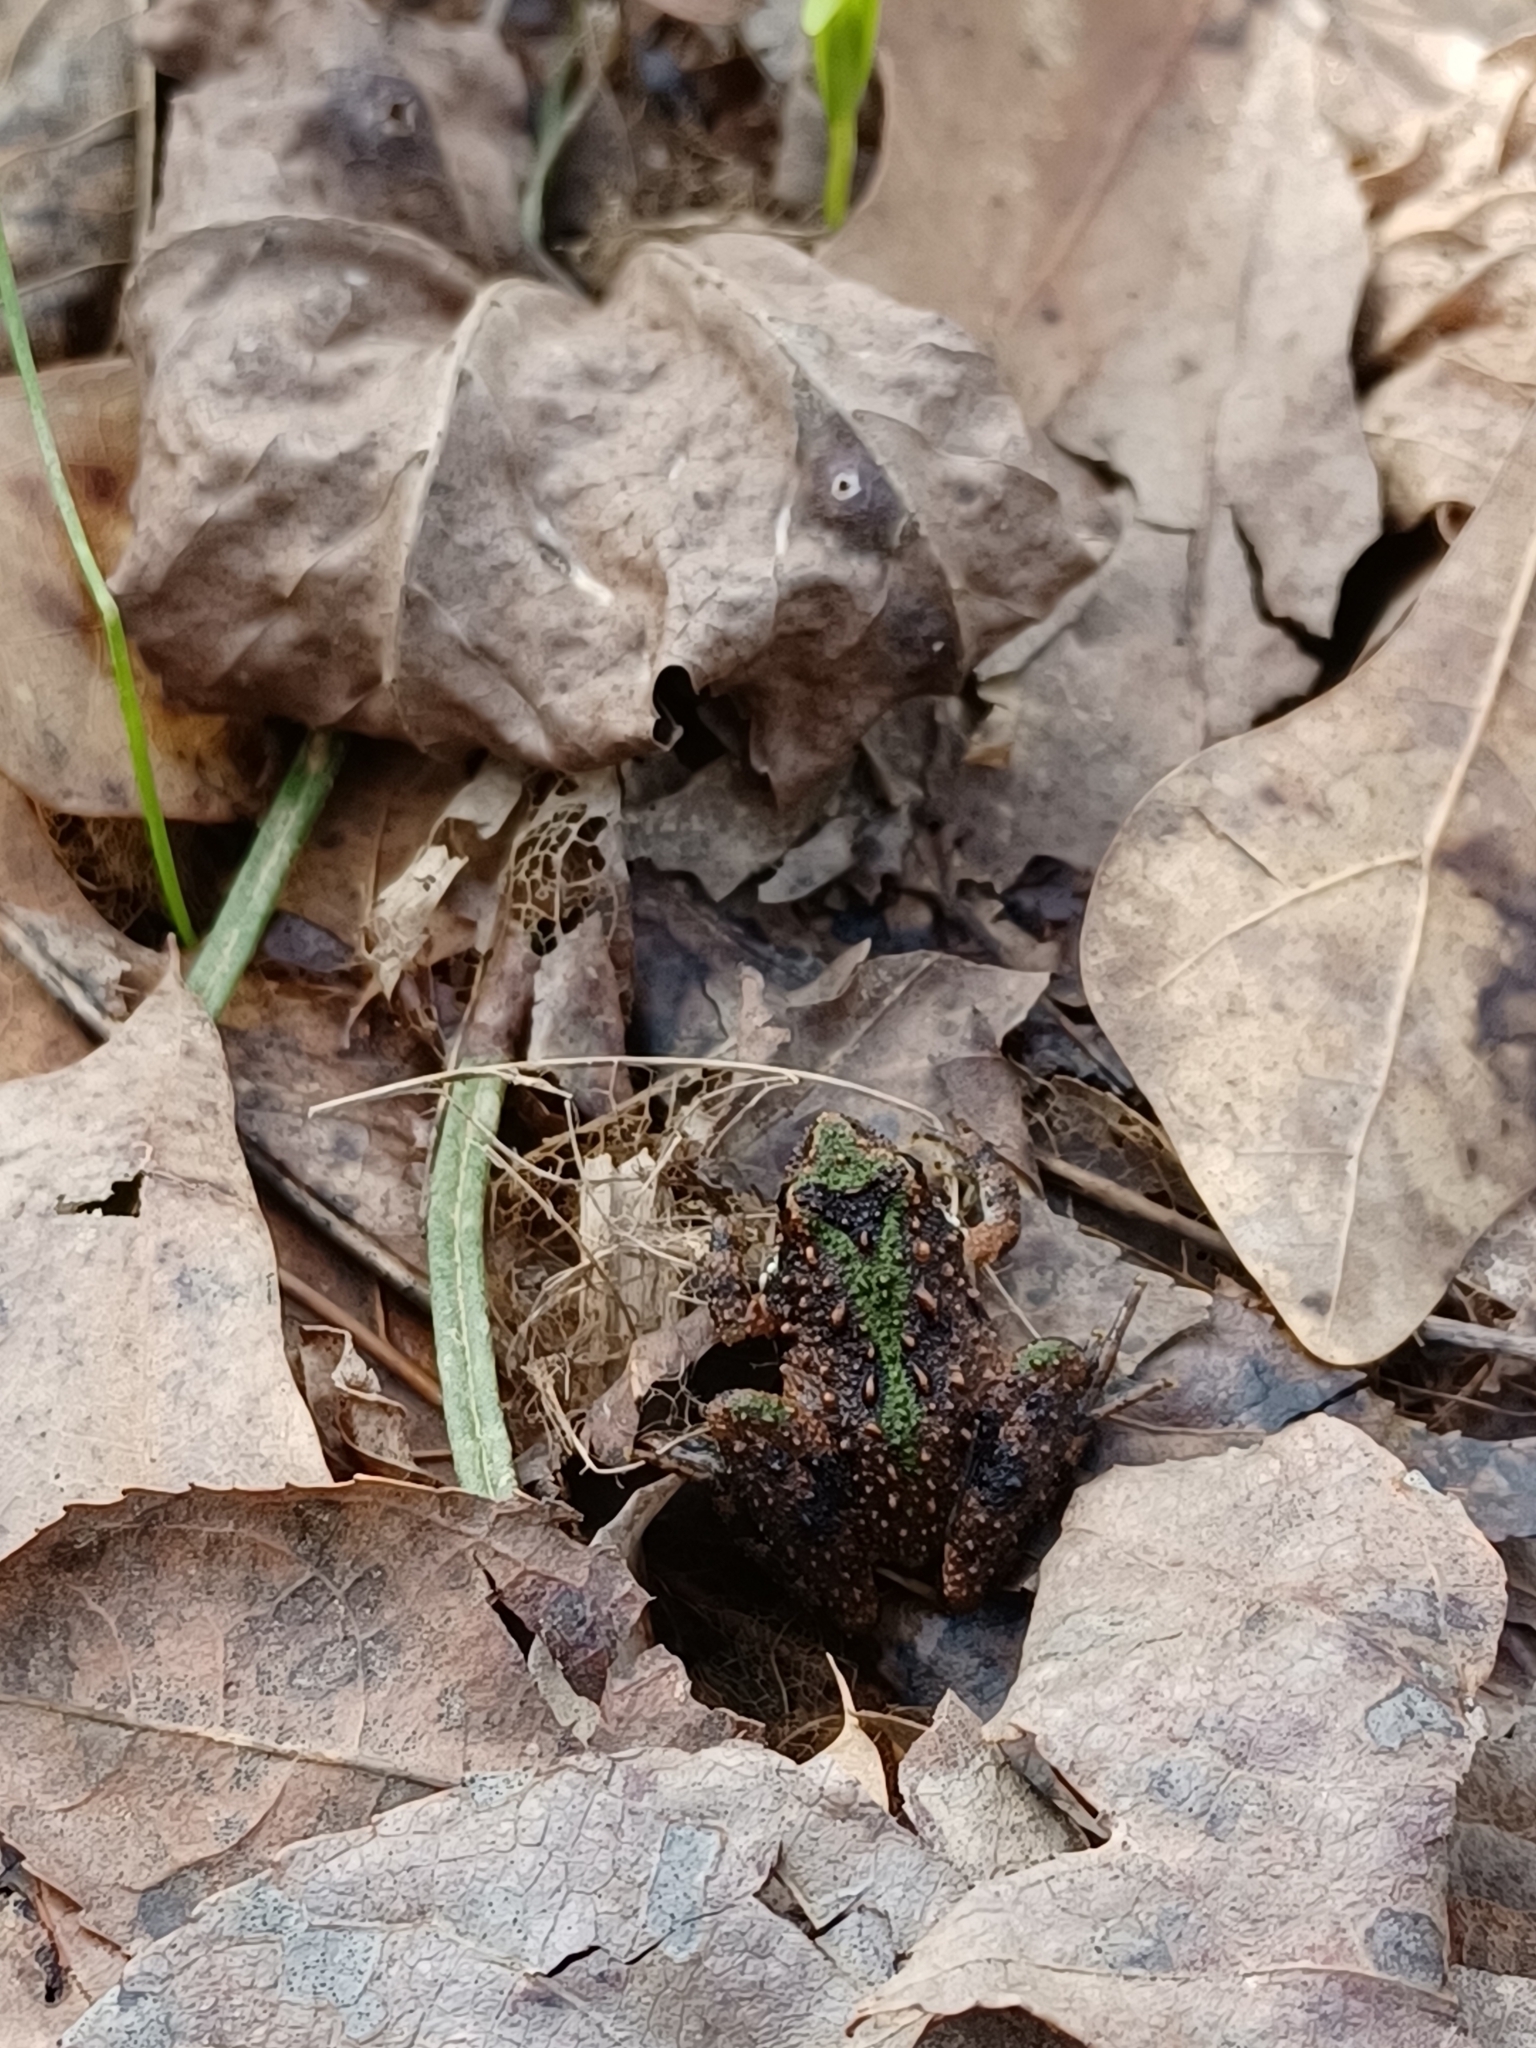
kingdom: Animalia
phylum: Chordata
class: Amphibia
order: Anura
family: Hylidae
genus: Acris
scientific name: Acris crepitans
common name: Northern cricket frog
